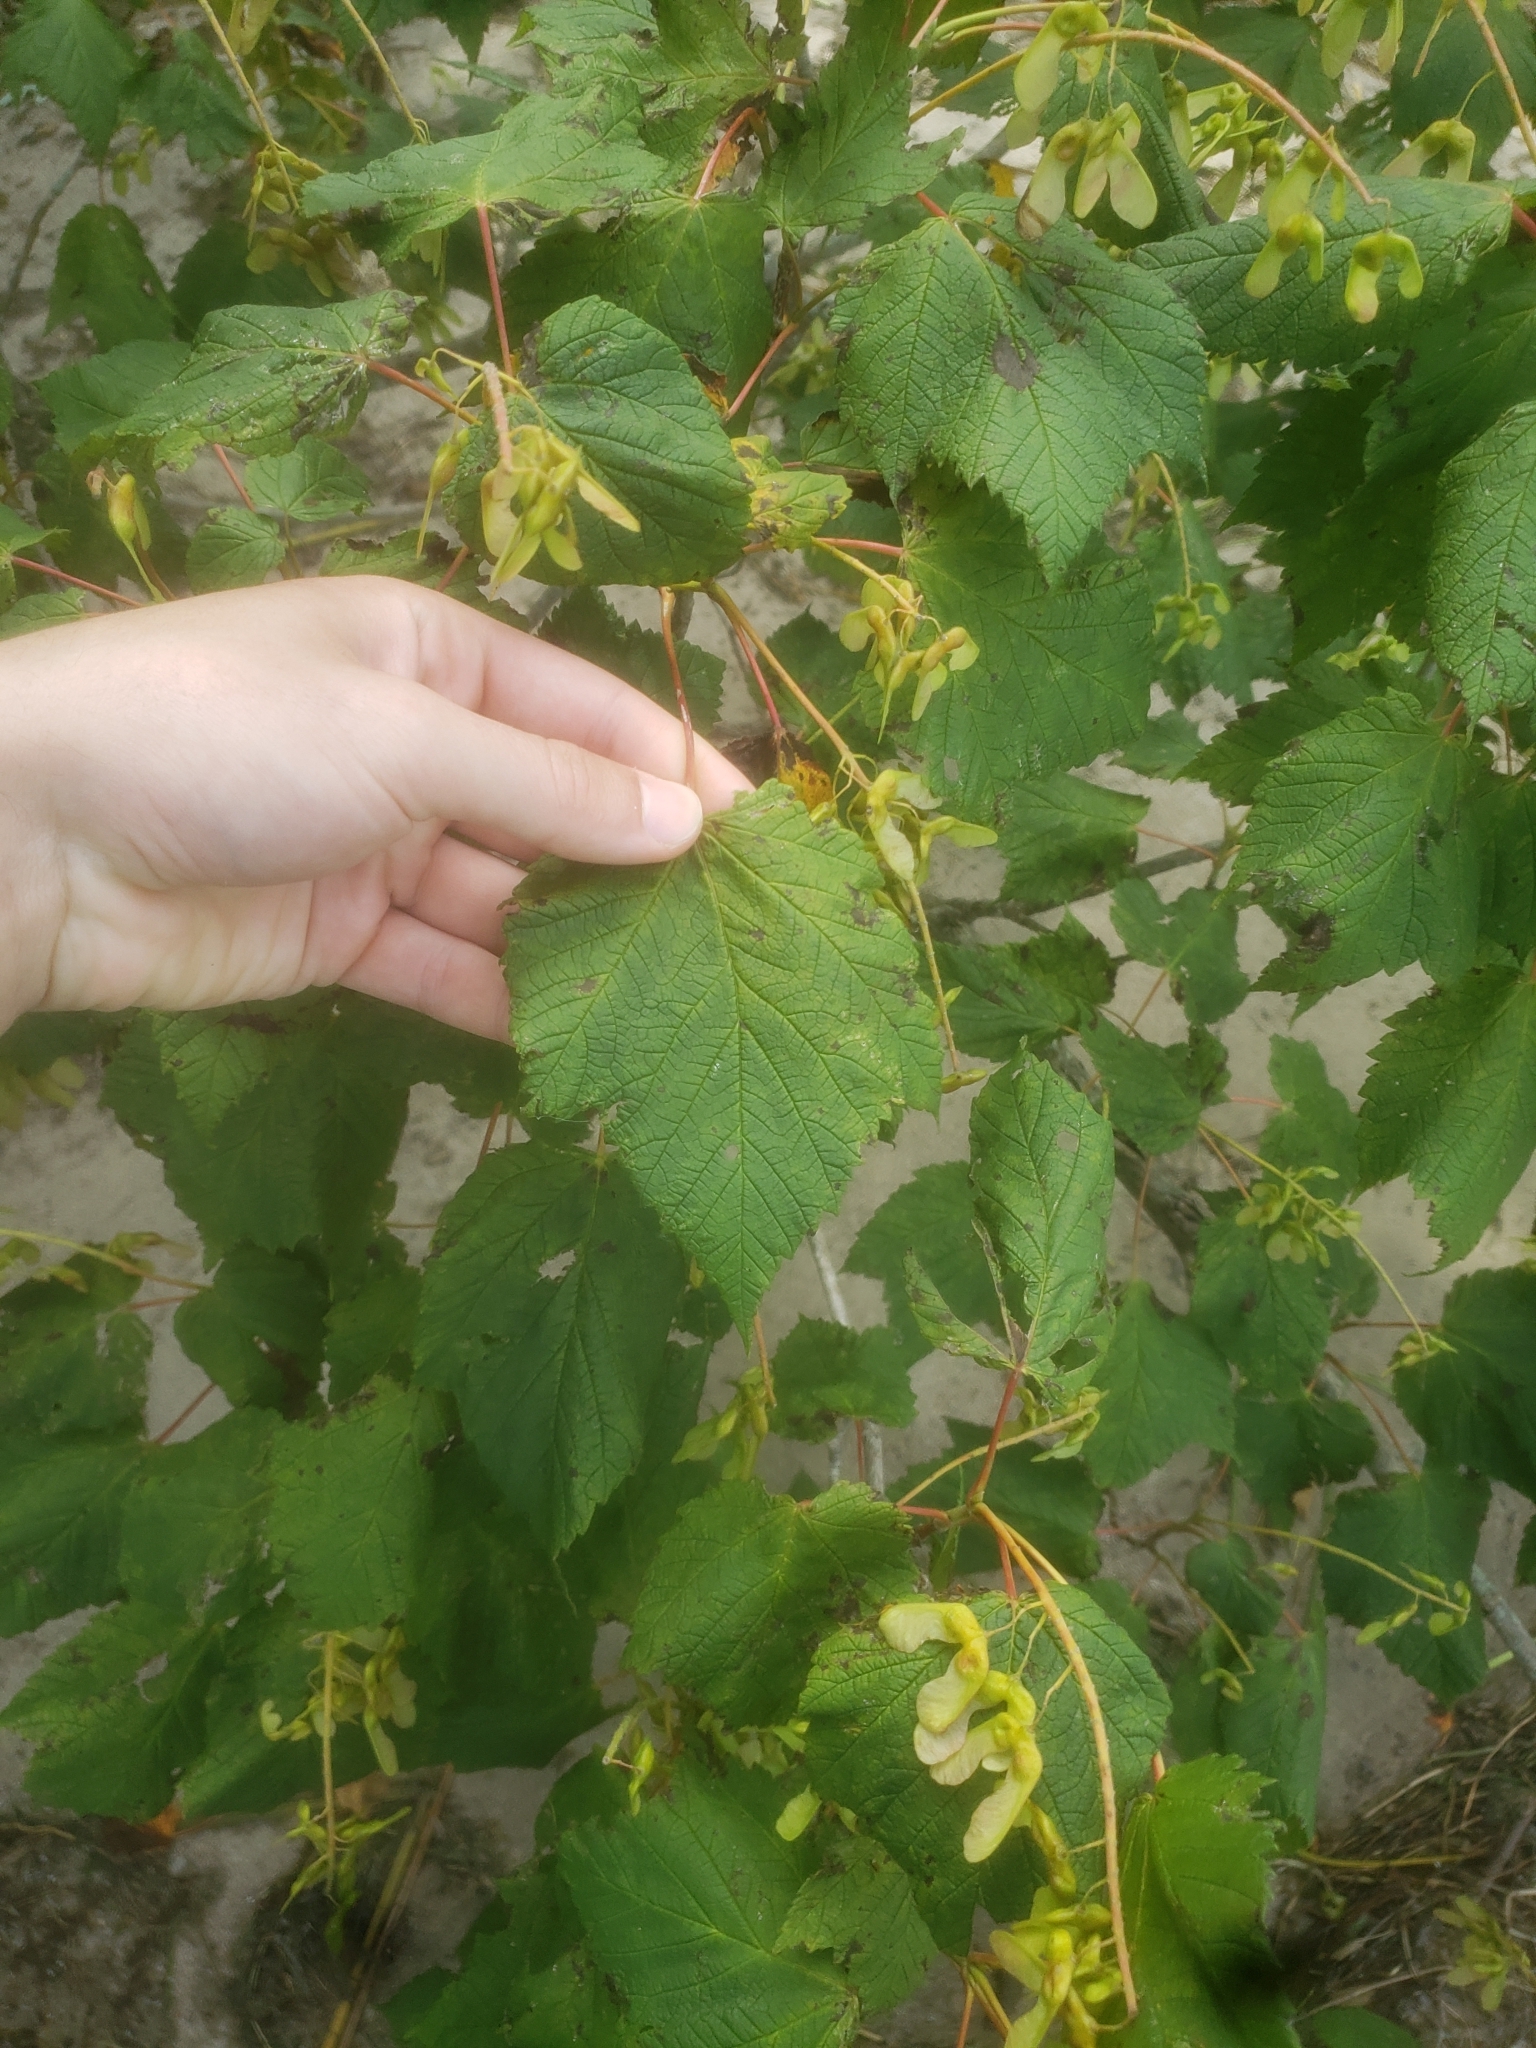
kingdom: Plantae
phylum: Tracheophyta
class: Magnoliopsida
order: Sapindales
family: Sapindaceae
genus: Acer
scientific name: Acer spicatum
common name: Mountain maple
